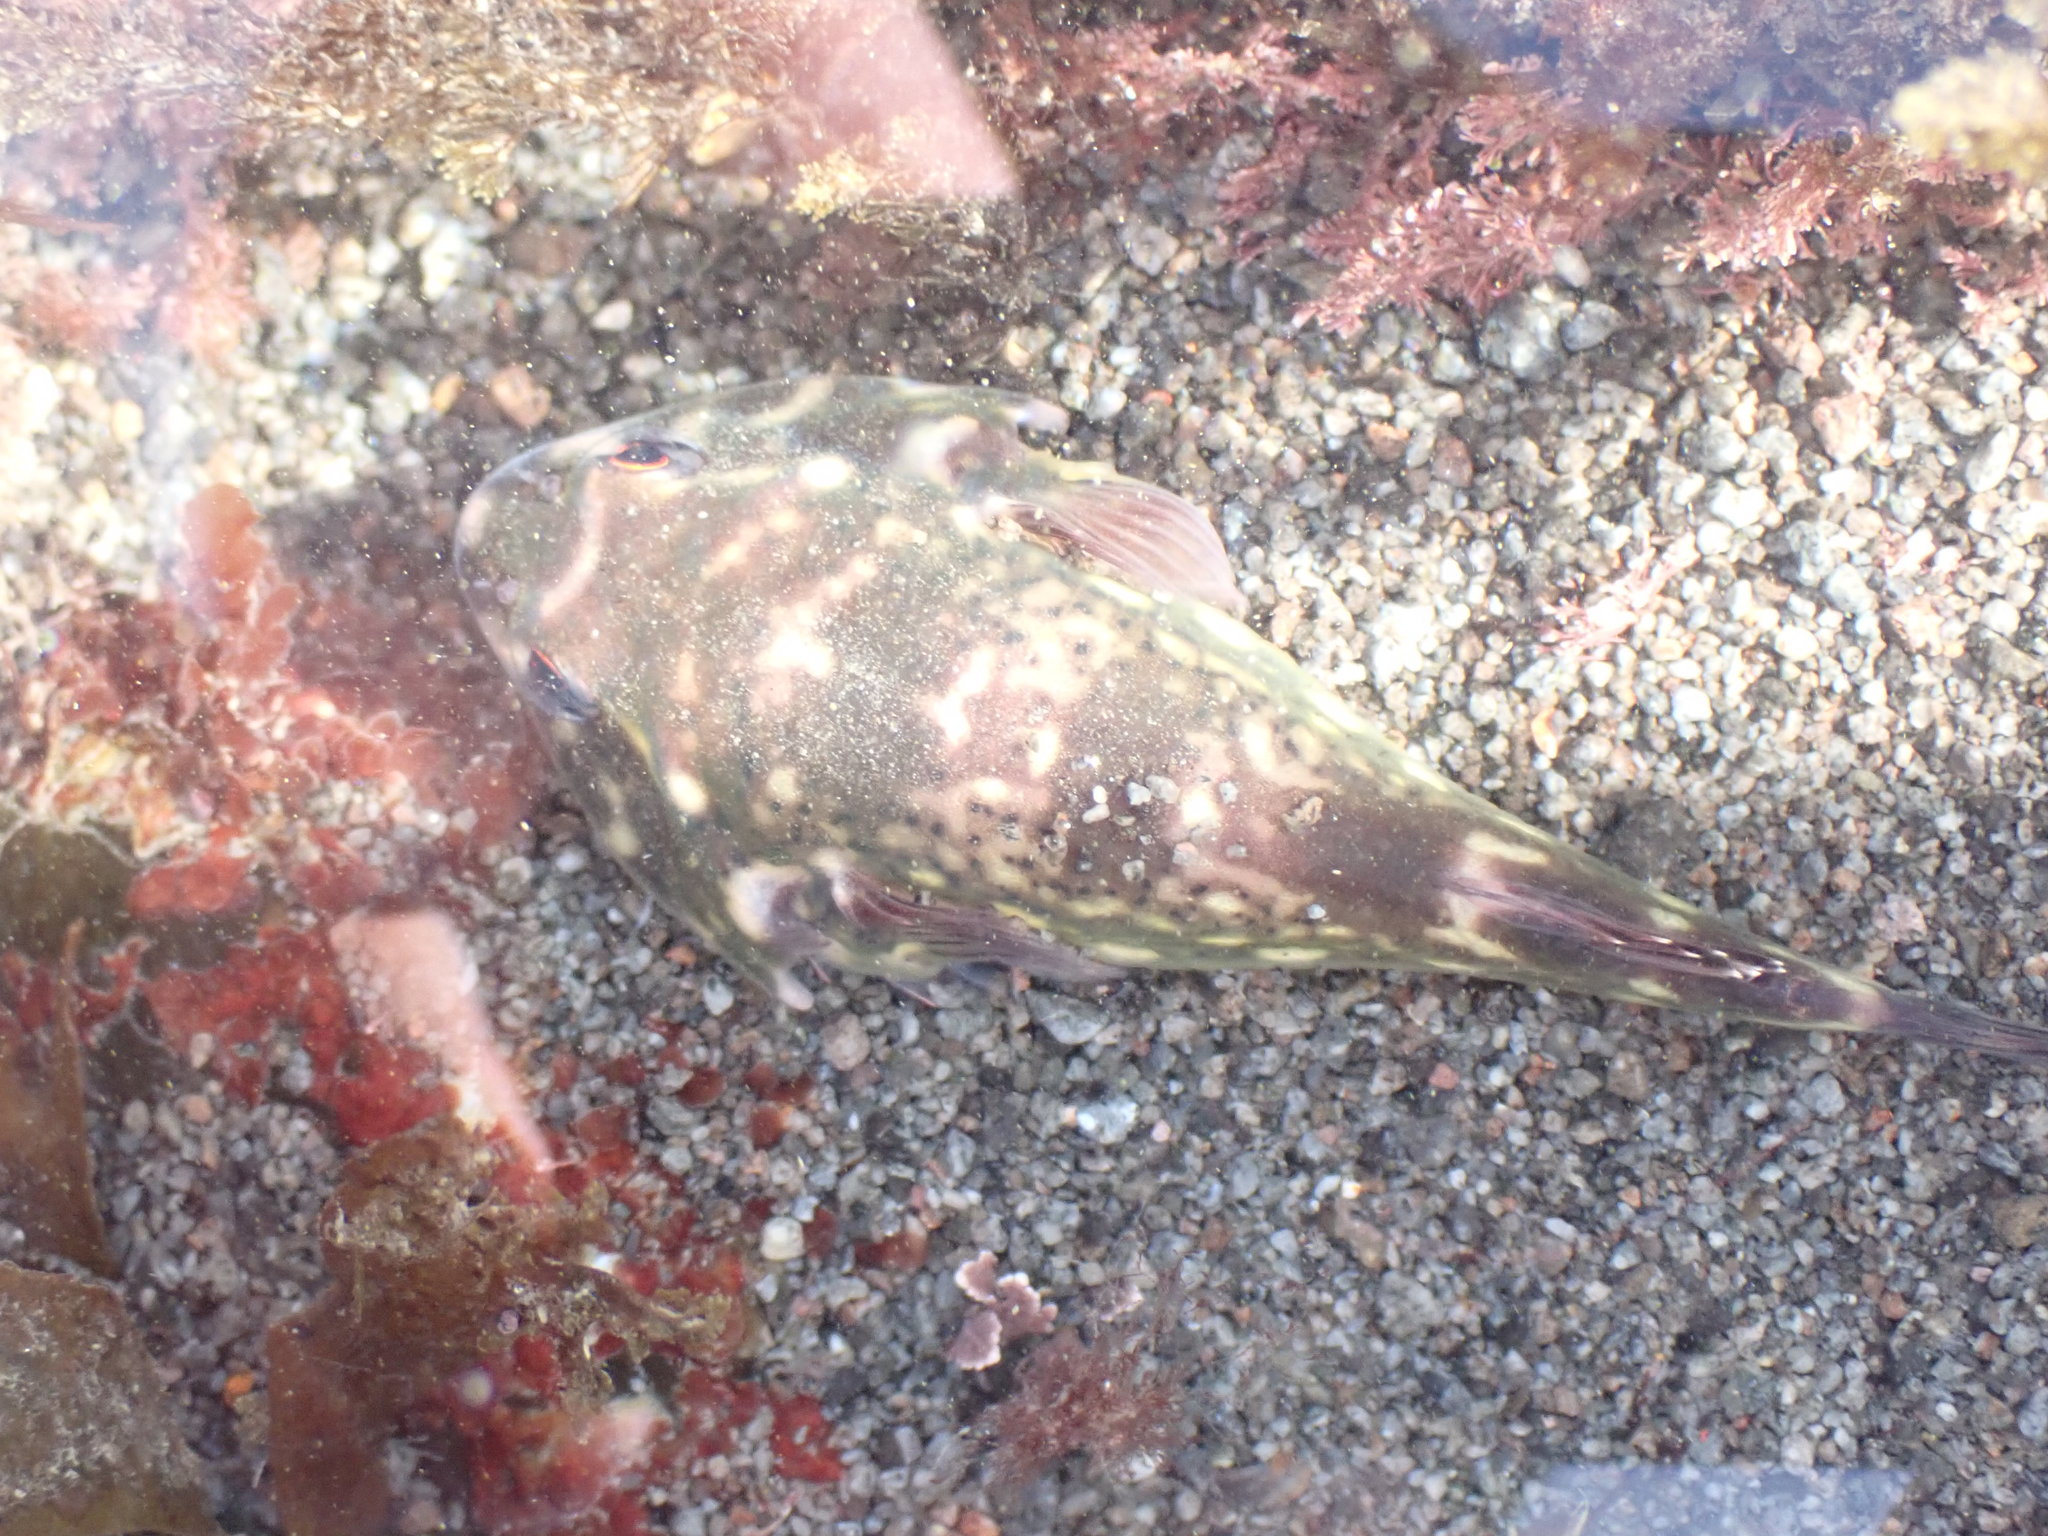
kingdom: Animalia
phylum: Chordata
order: Gobiesociformes
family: Gobiesocidae
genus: Diplocrepis
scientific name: Diplocrepis puniceus
